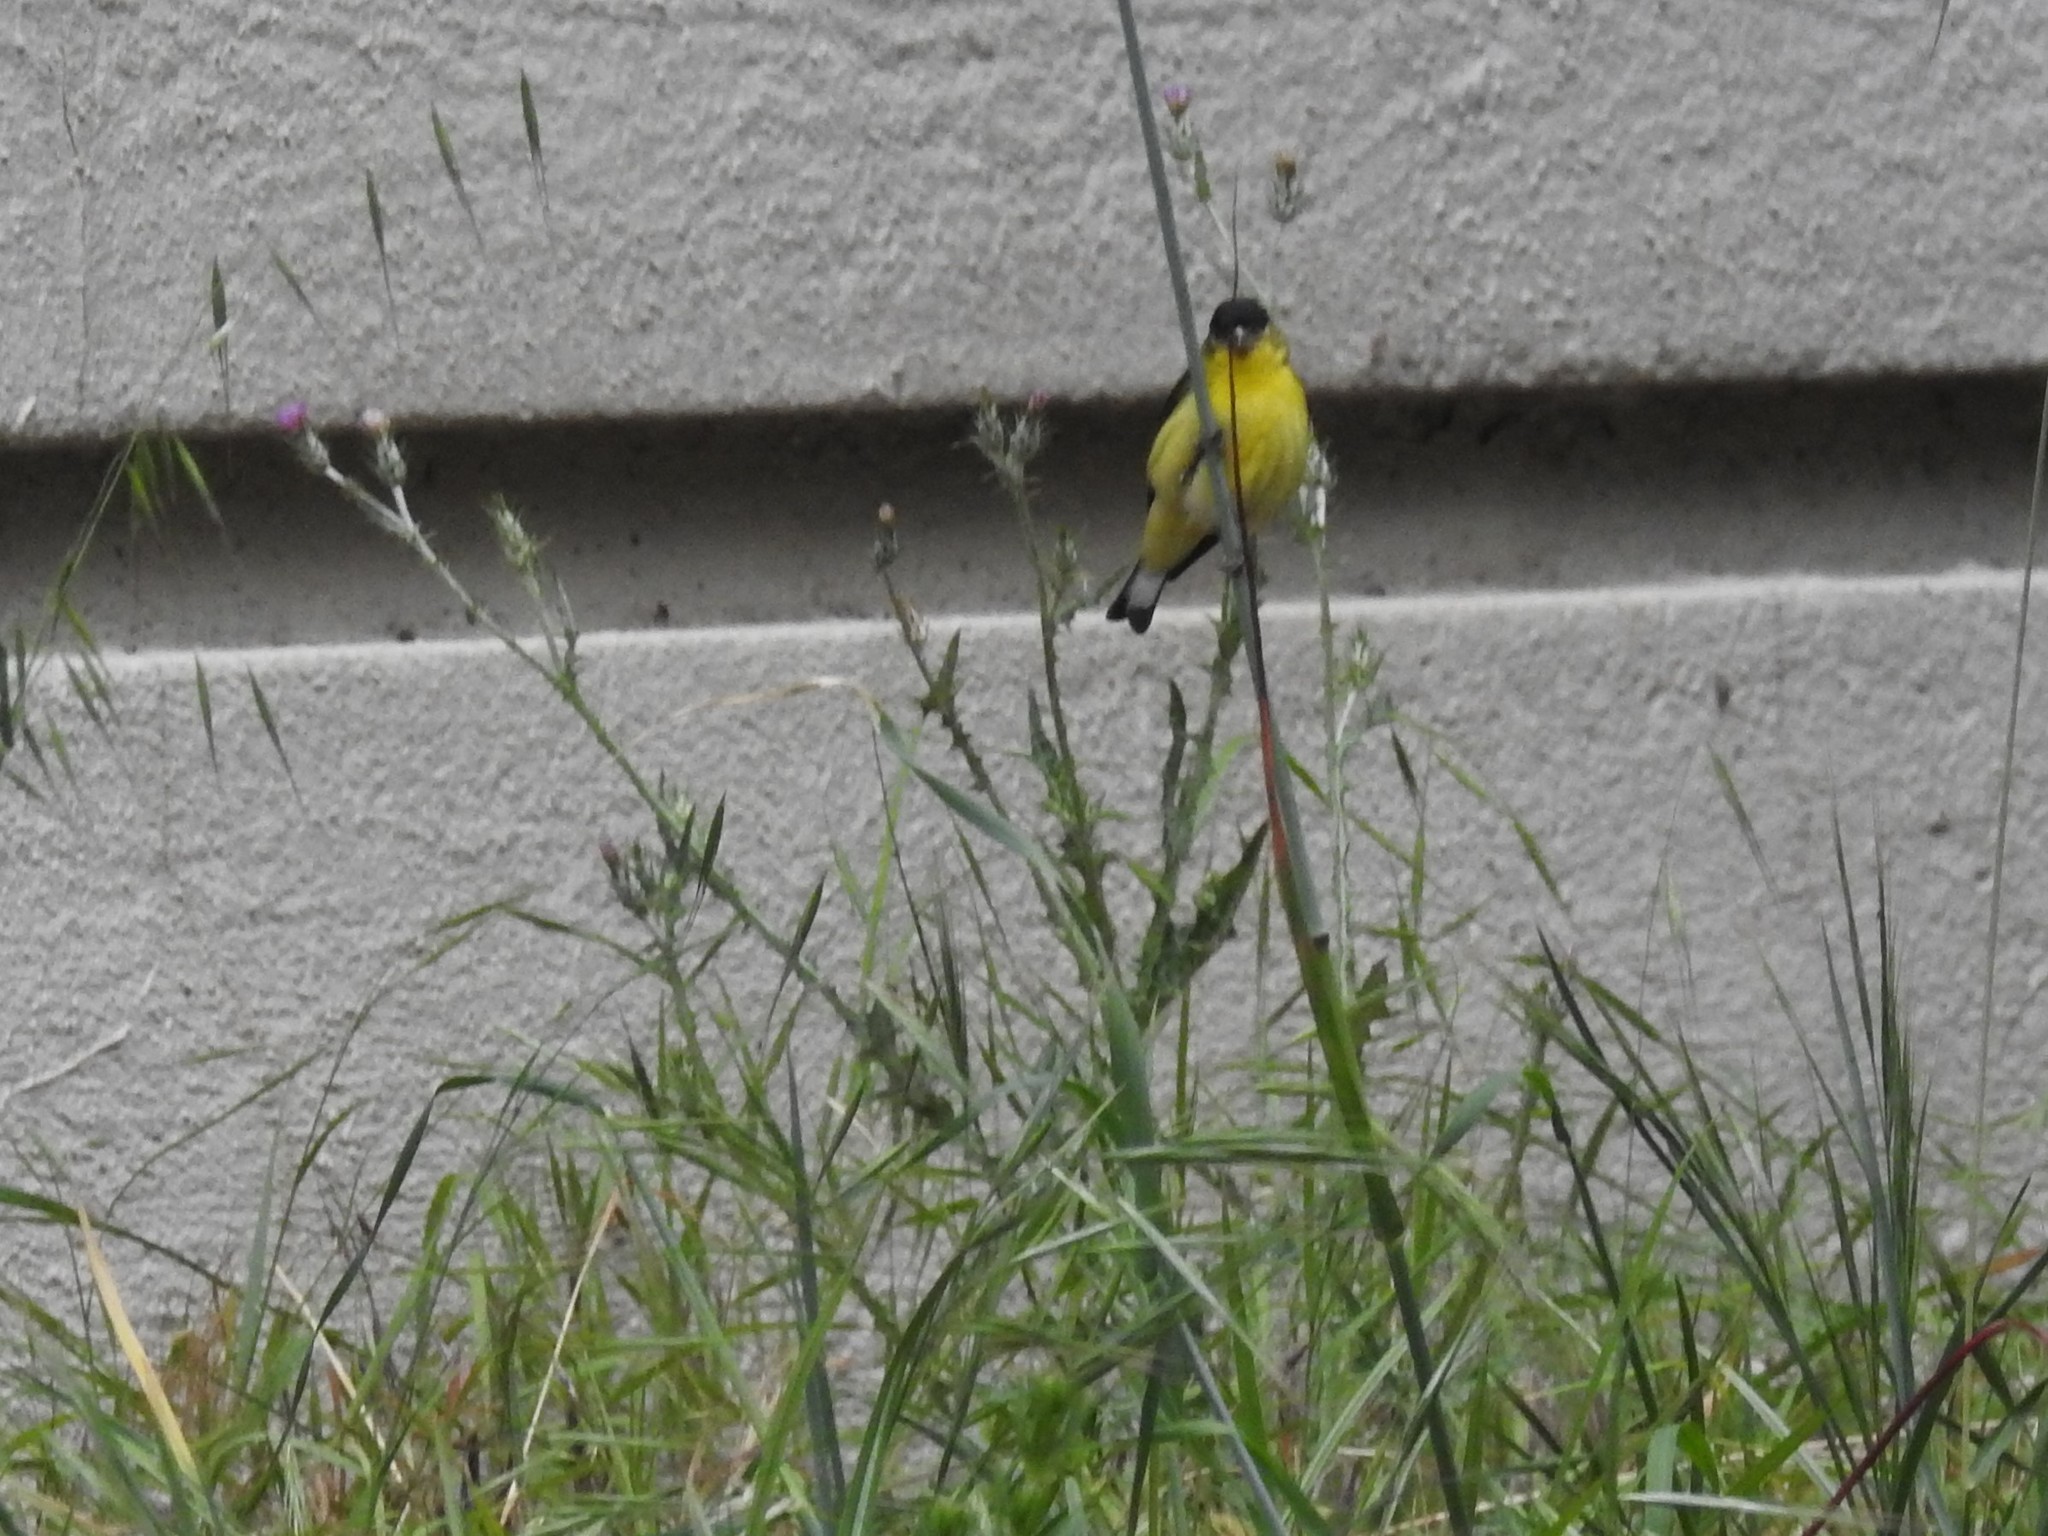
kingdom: Animalia
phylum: Chordata
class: Aves
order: Passeriformes
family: Fringillidae
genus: Spinus
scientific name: Spinus psaltria
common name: Lesser goldfinch
